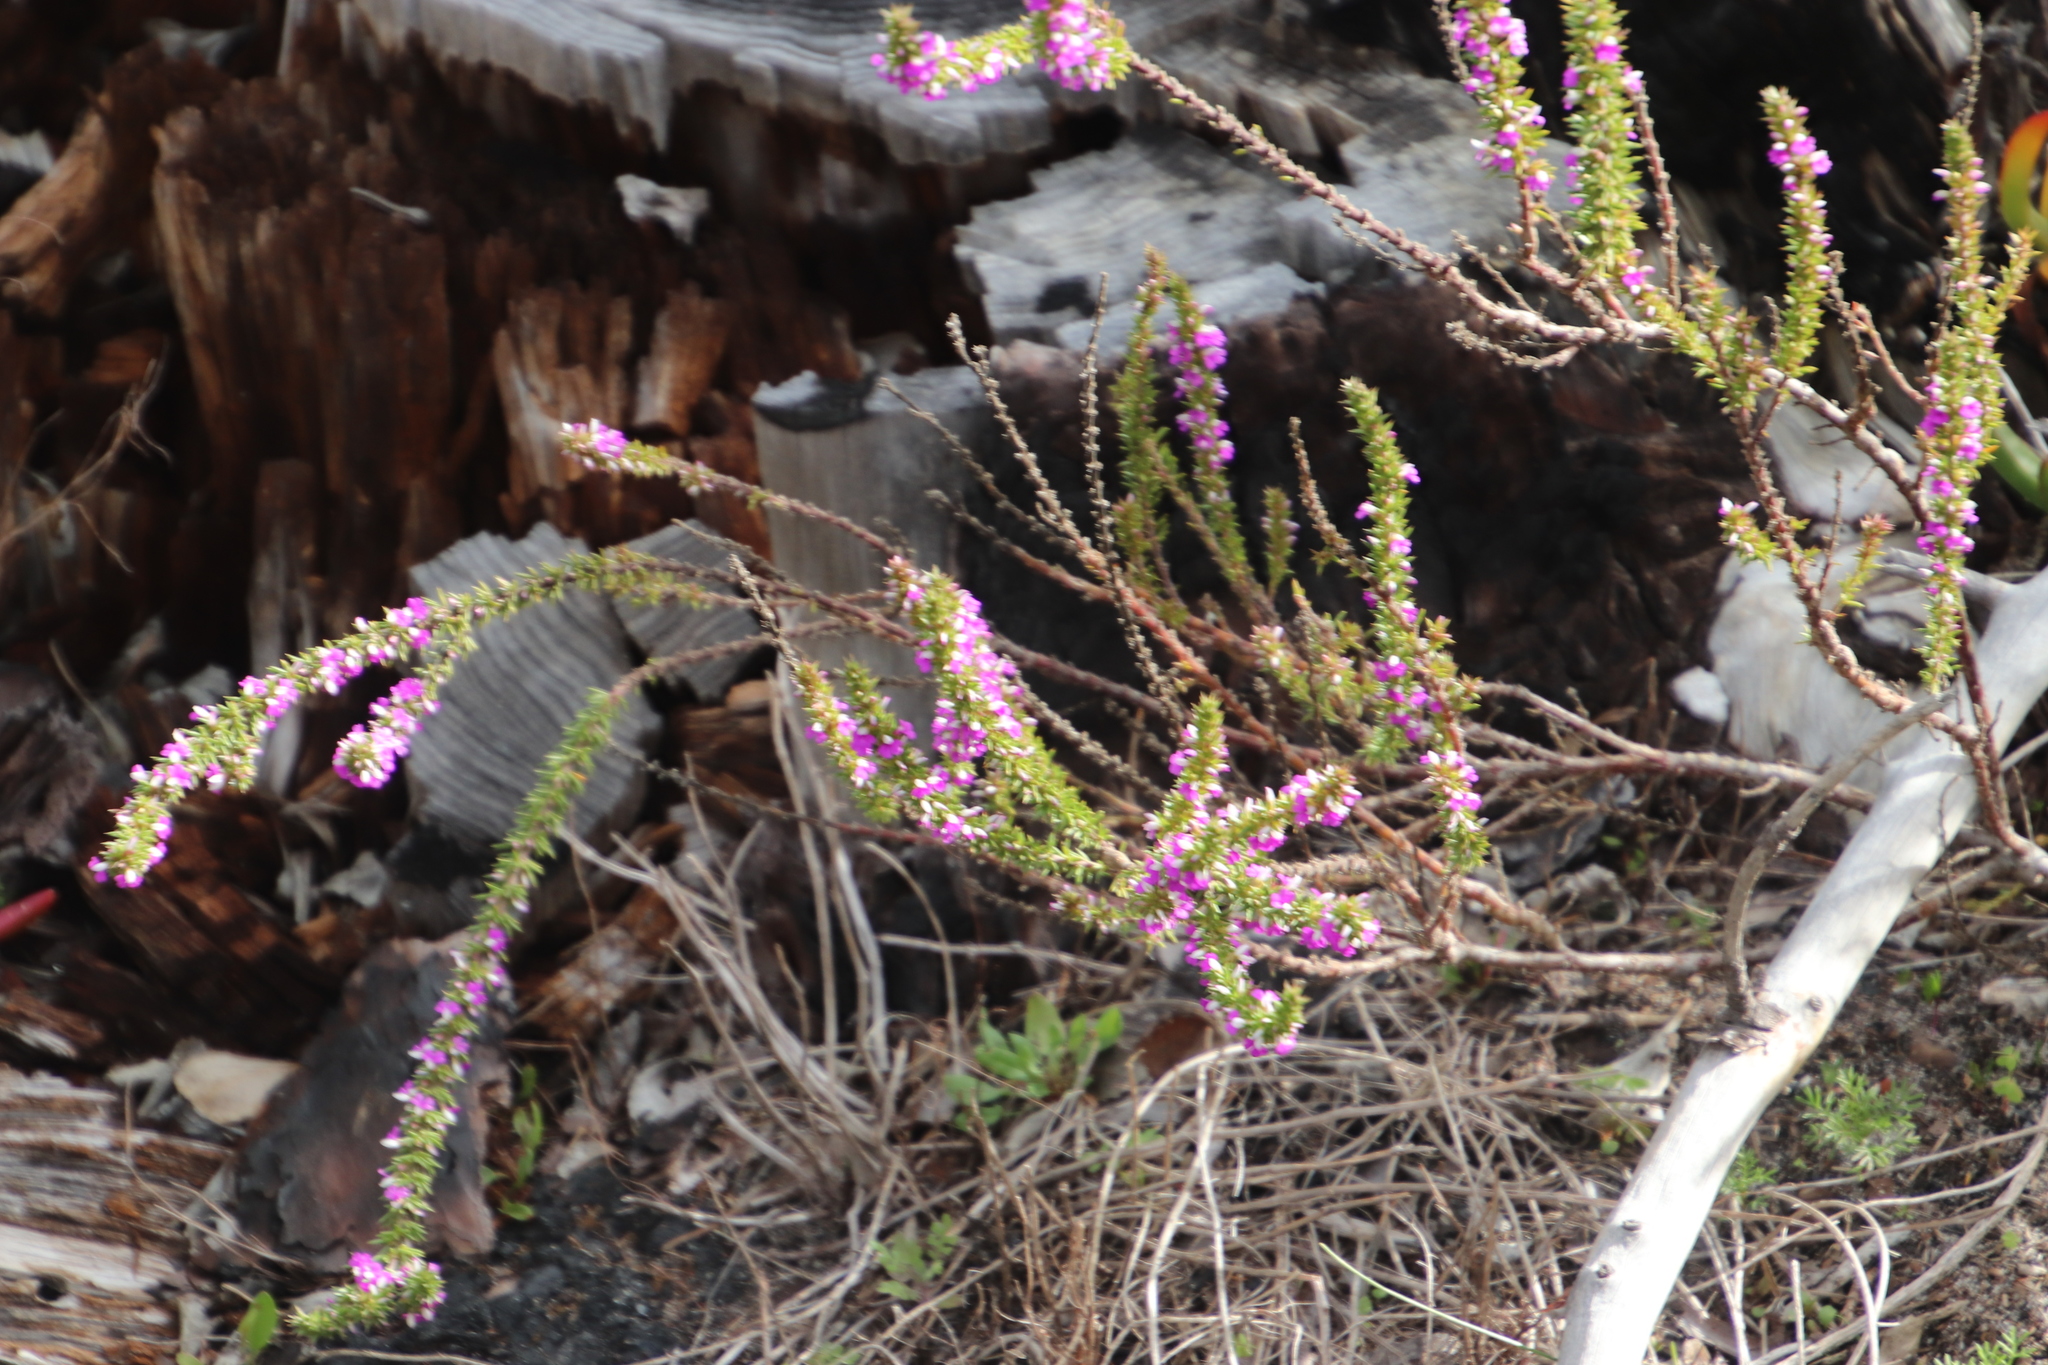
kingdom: Plantae
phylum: Tracheophyta
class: Magnoliopsida
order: Fabales
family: Polygalaceae
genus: Muraltia
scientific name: Muraltia heisteria
